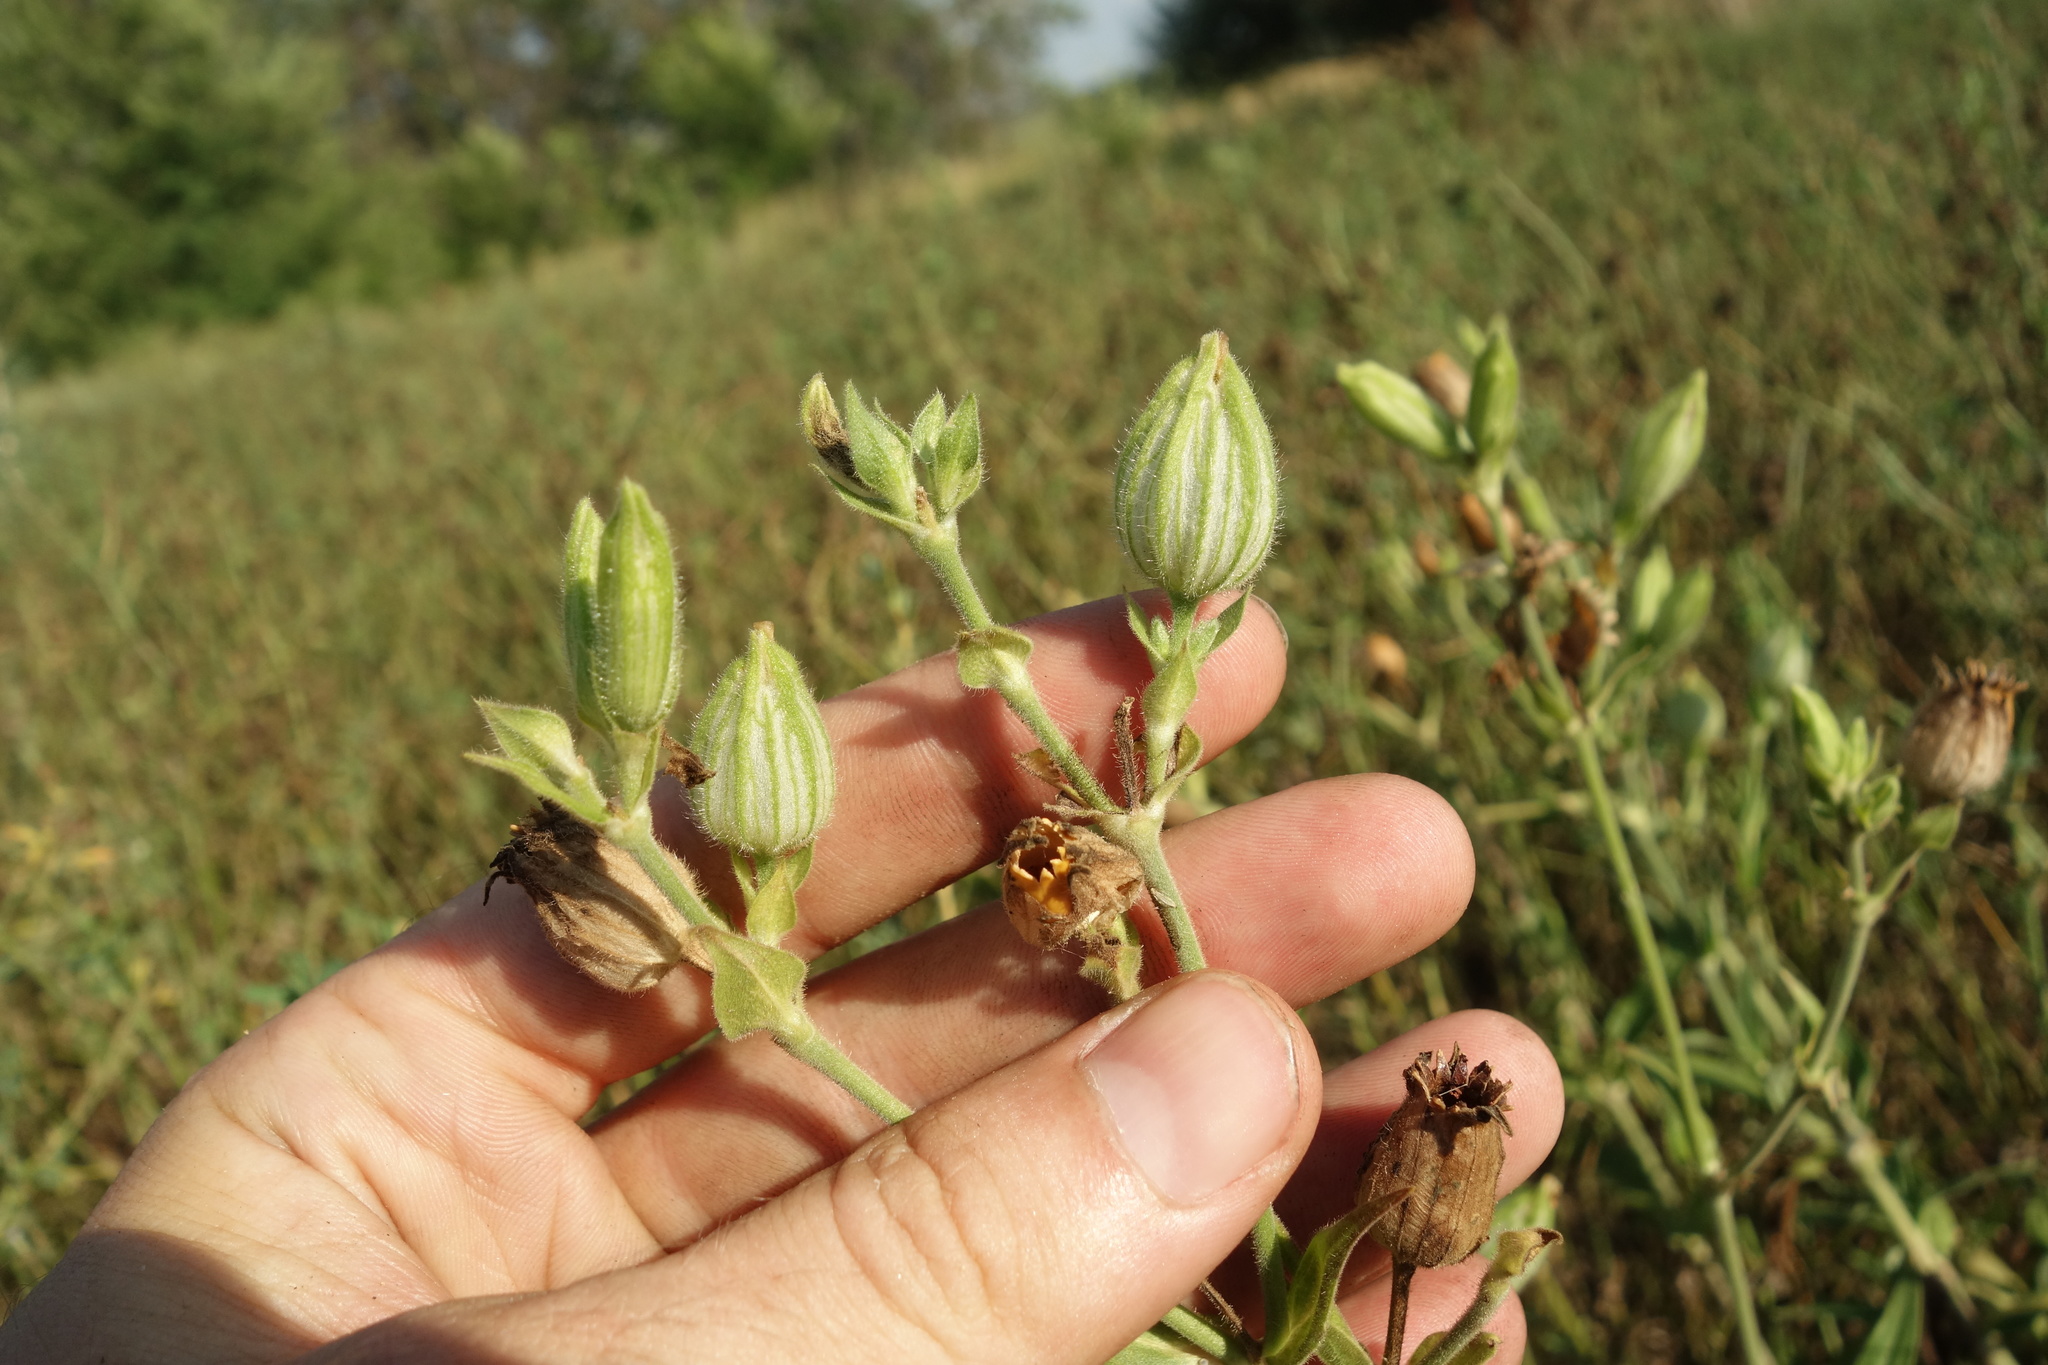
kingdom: Plantae
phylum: Tracheophyta
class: Magnoliopsida
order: Caryophyllales
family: Caryophyllaceae
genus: Silene
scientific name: Silene latifolia
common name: White campion
